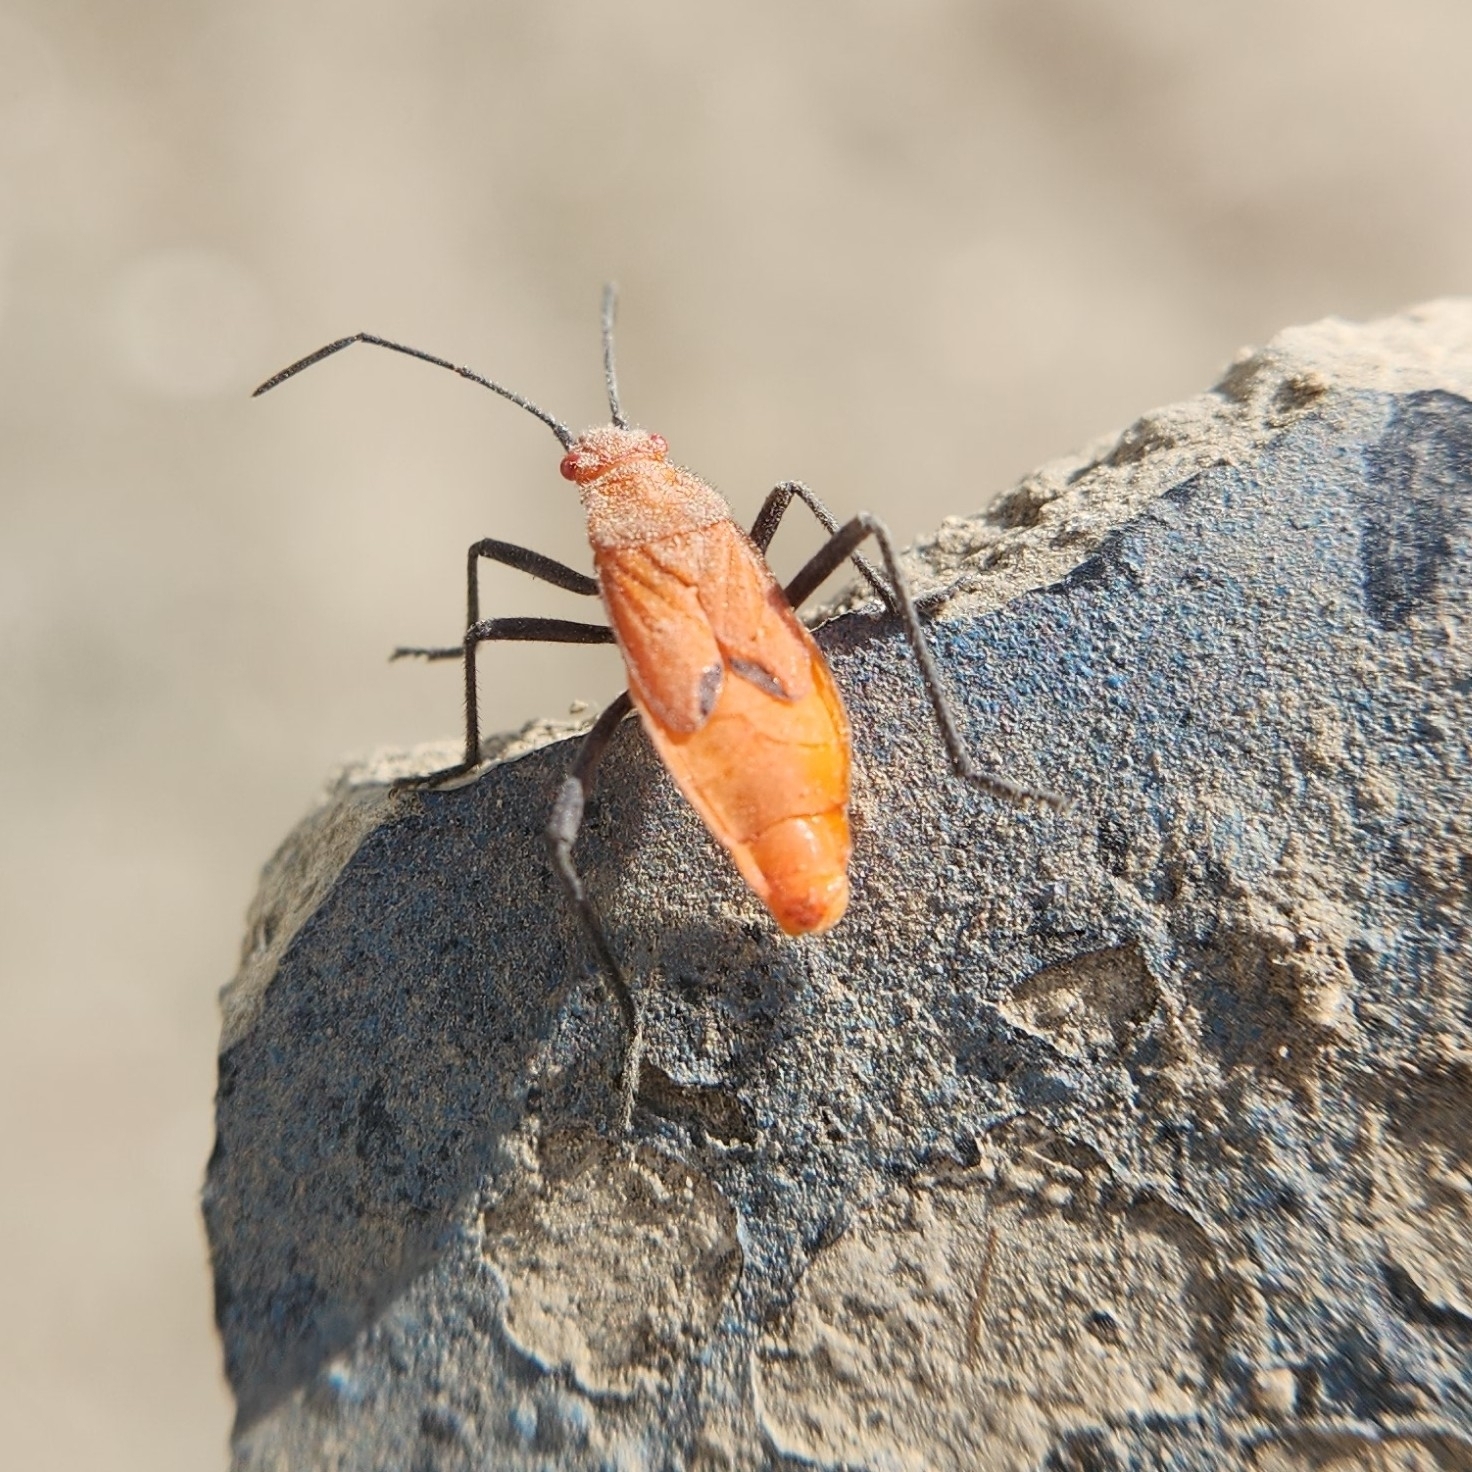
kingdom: Animalia
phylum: Arthropoda
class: Insecta
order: Hemiptera
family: Rhopalidae
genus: Leptocoris
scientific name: Leptocoris augur
